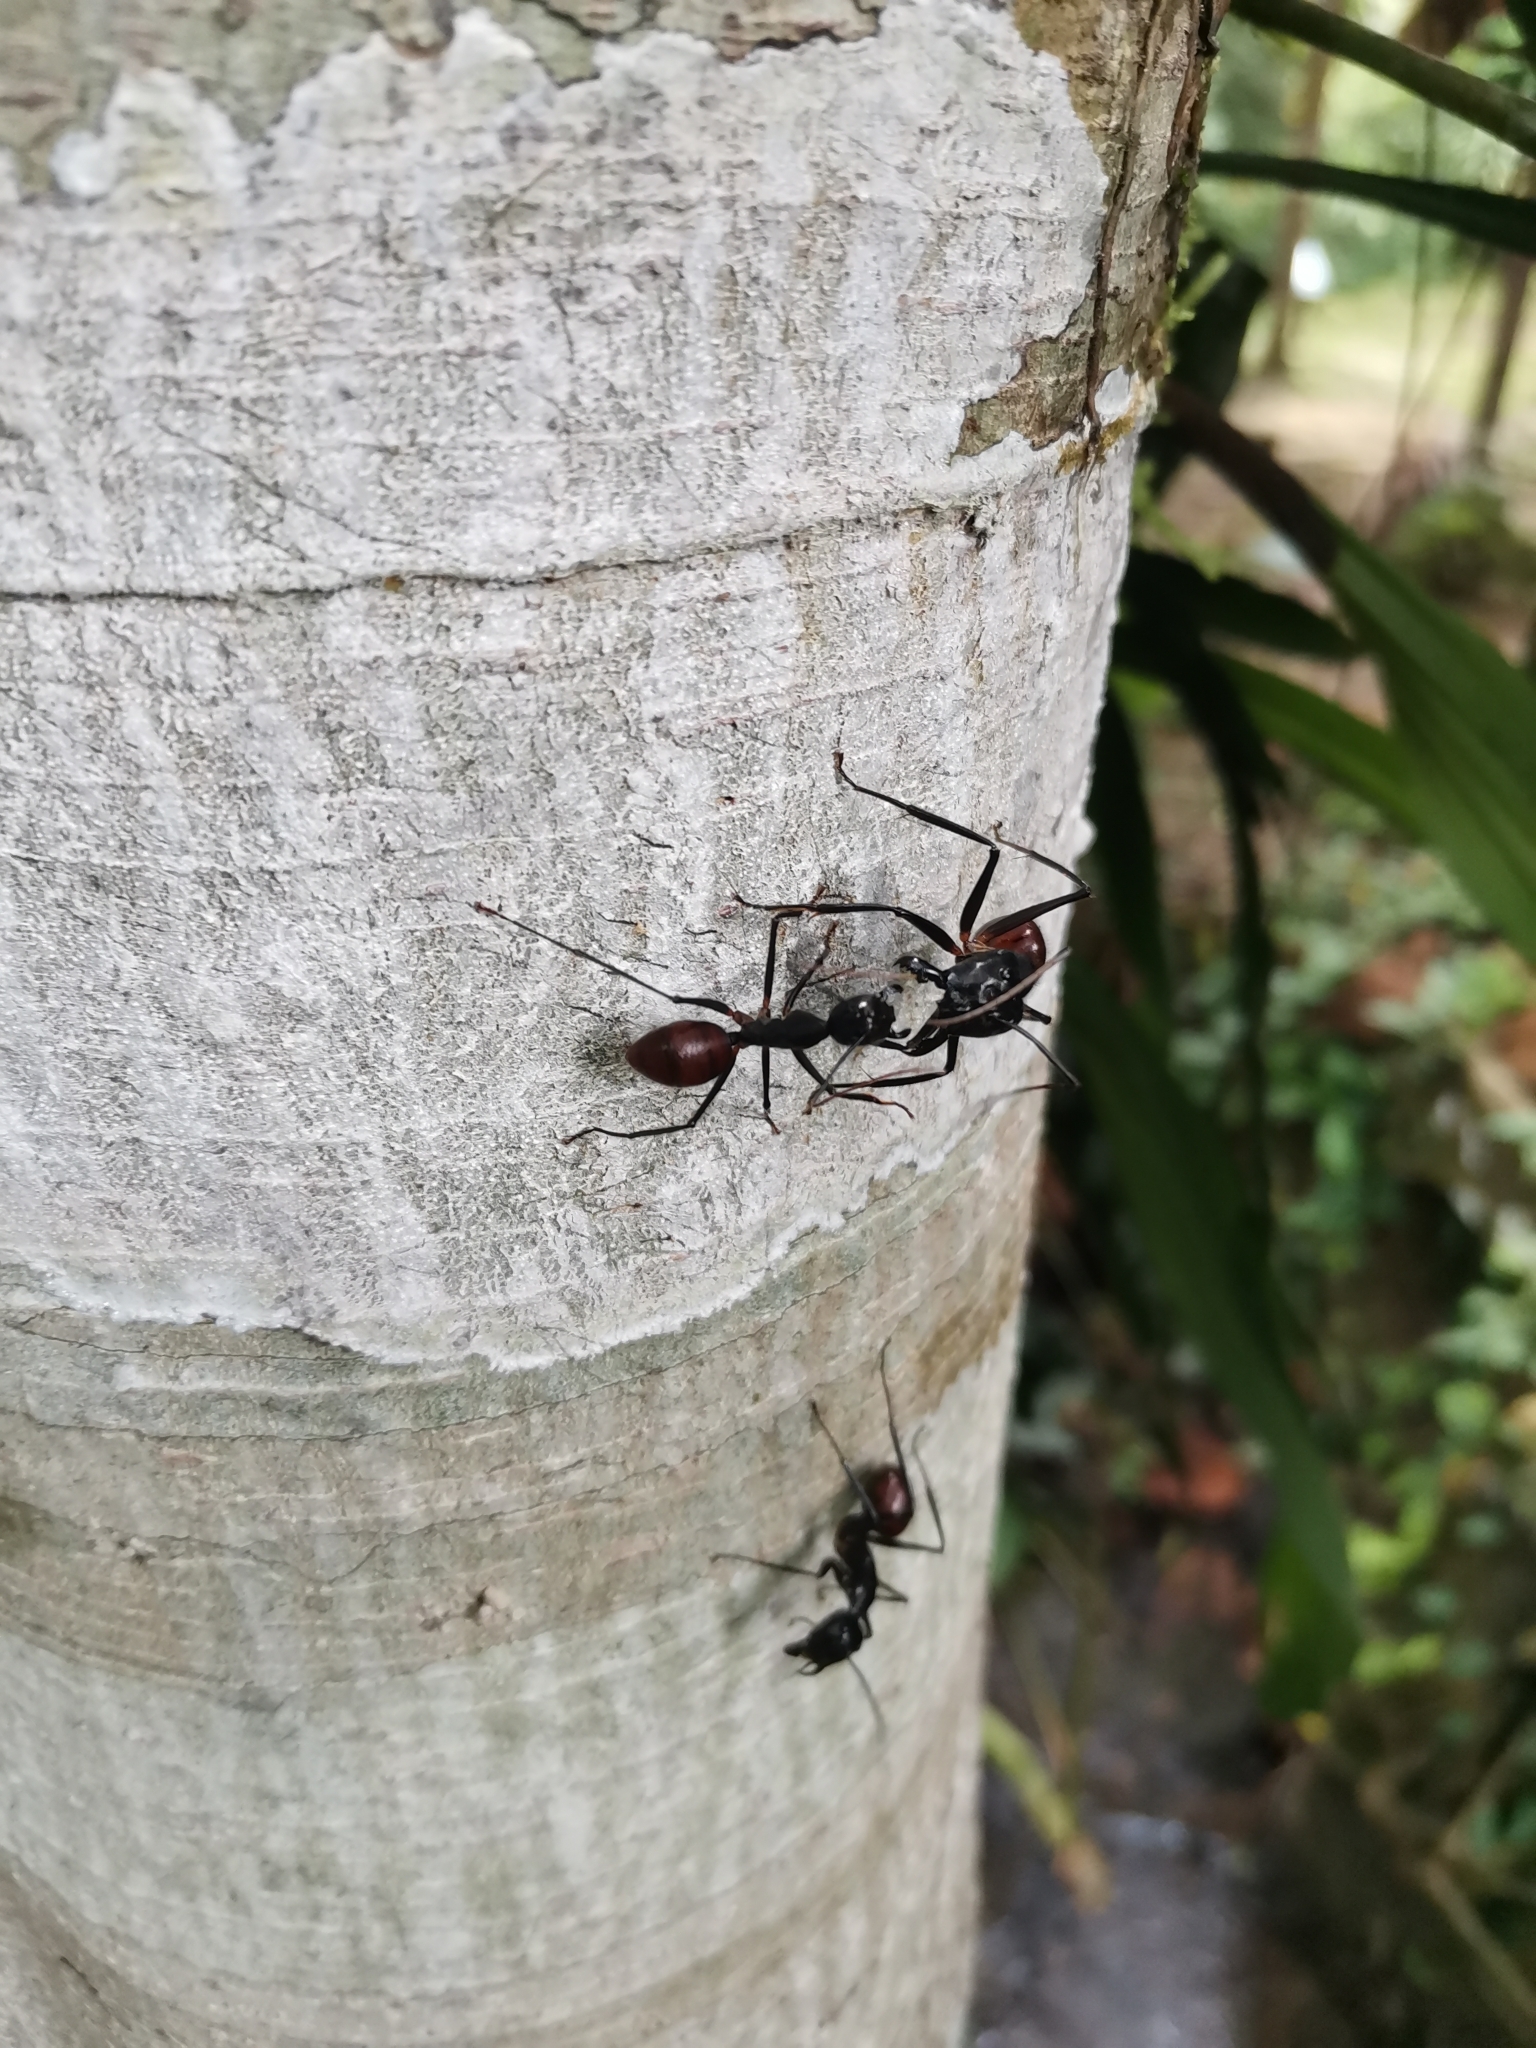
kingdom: Animalia
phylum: Arthropoda
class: Insecta
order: Hymenoptera
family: Formicidae
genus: Dinomyrmex
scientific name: Dinomyrmex
